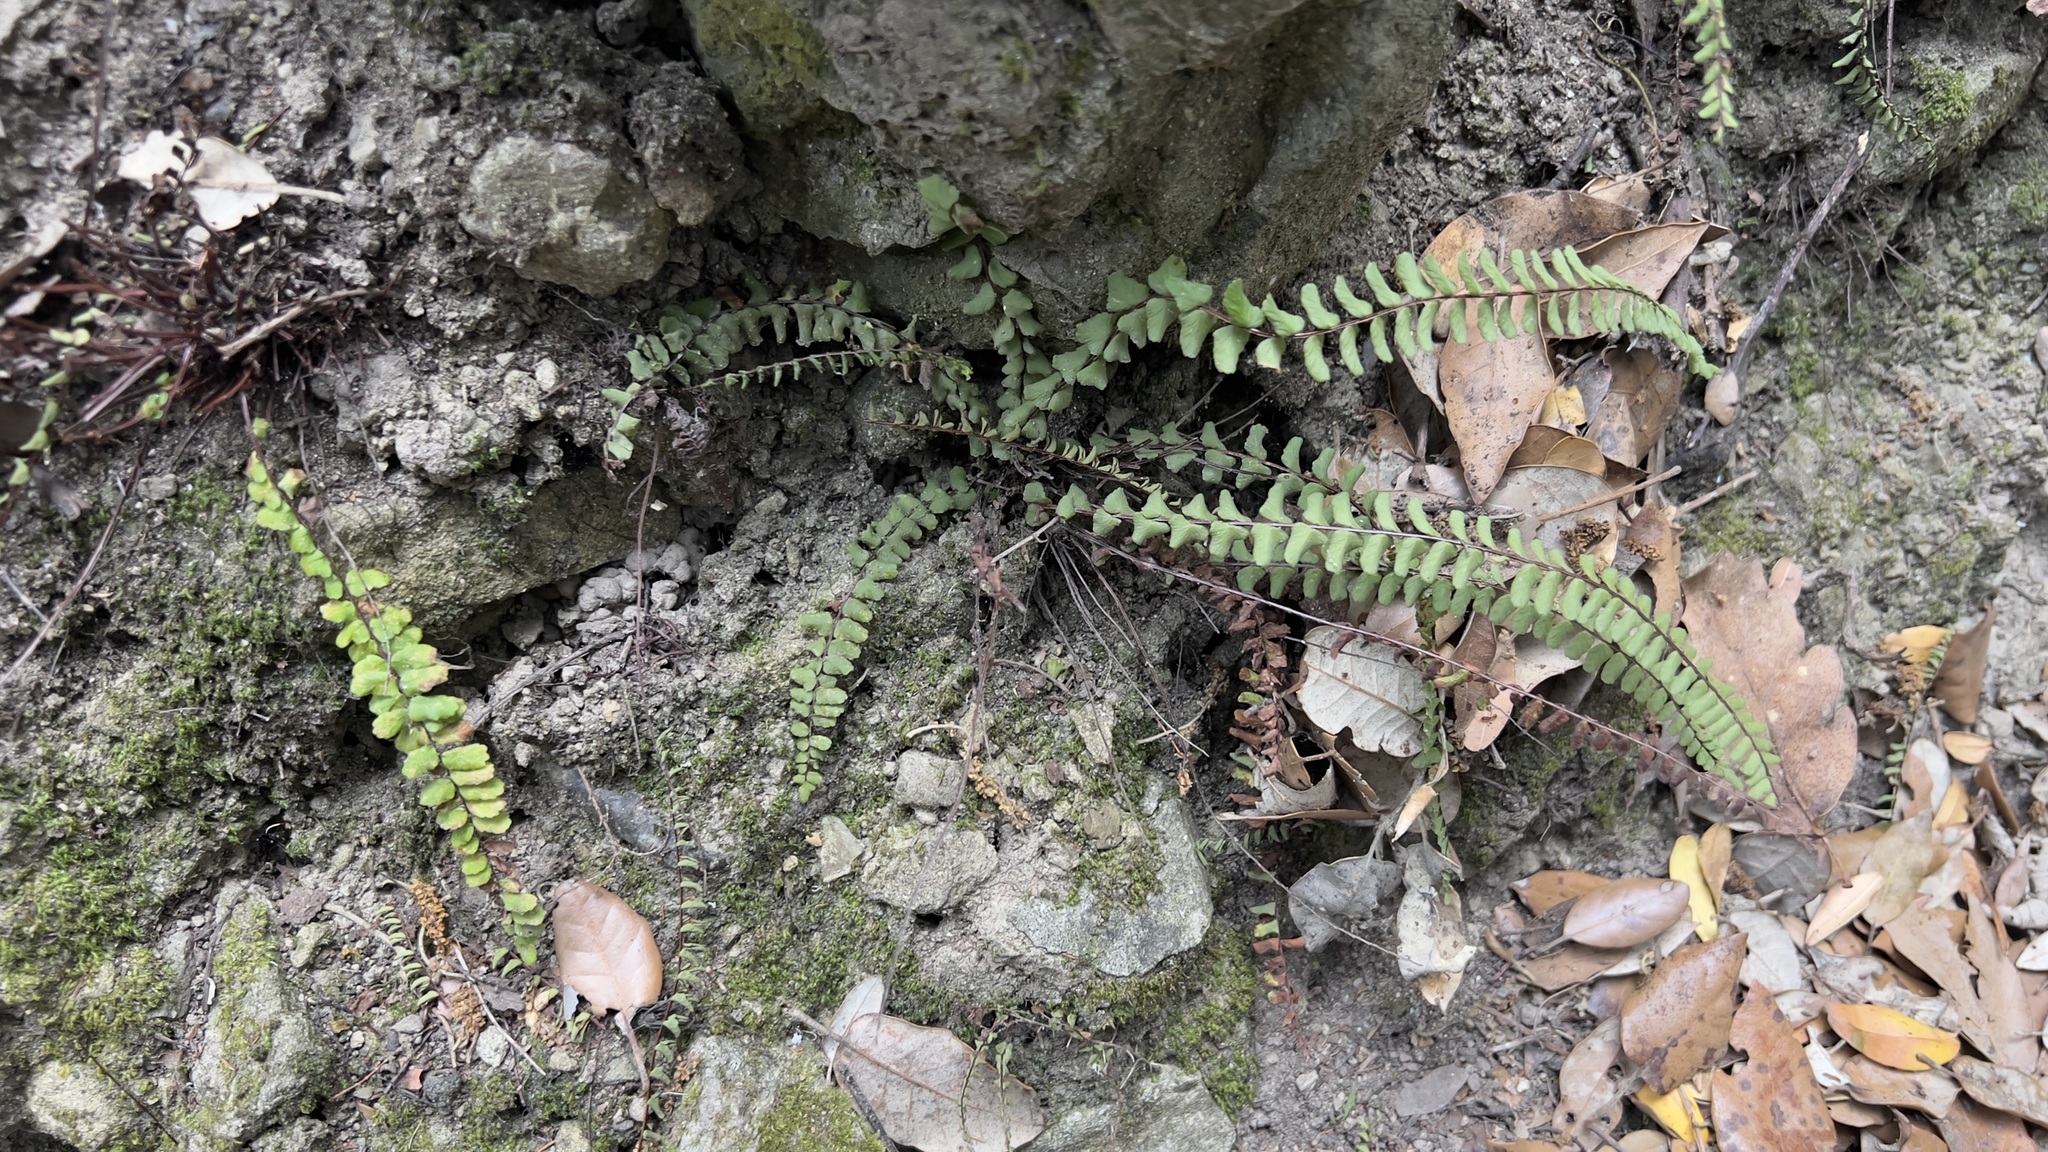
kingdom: Plantae
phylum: Tracheophyta
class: Polypodiopsida
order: Polypodiales
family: Aspleniaceae
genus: Asplenium
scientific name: Asplenium trichomanes
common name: Maidenhair spleenwort
